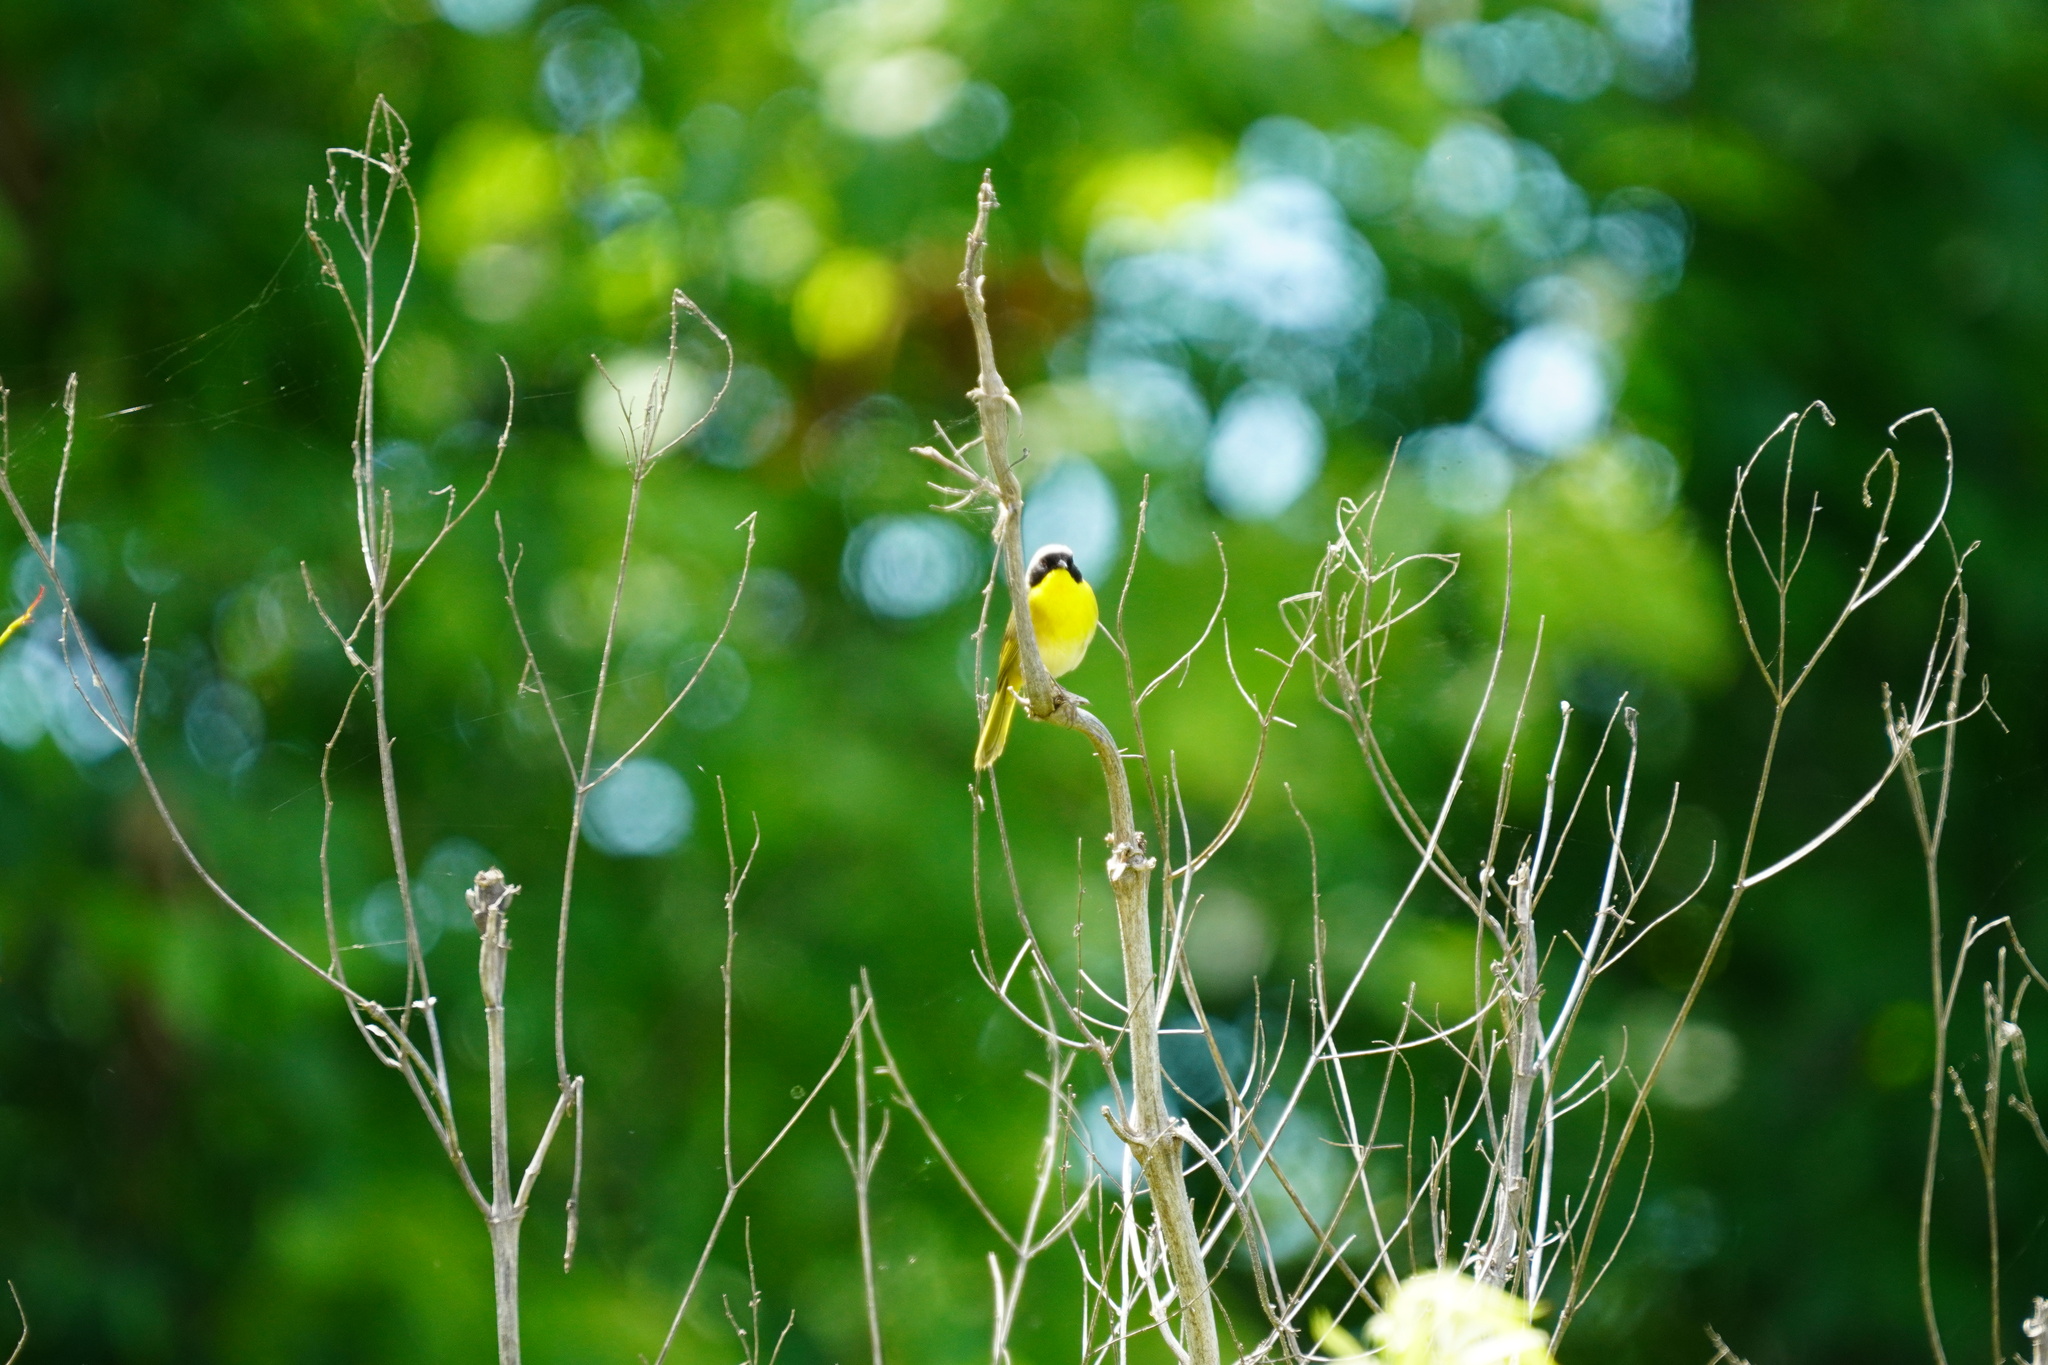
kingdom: Animalia
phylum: Chordata
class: Aves
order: Passeriformes
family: Parulidae
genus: Geothlypis
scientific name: Geothlypis trichas
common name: Common yellowthroat
